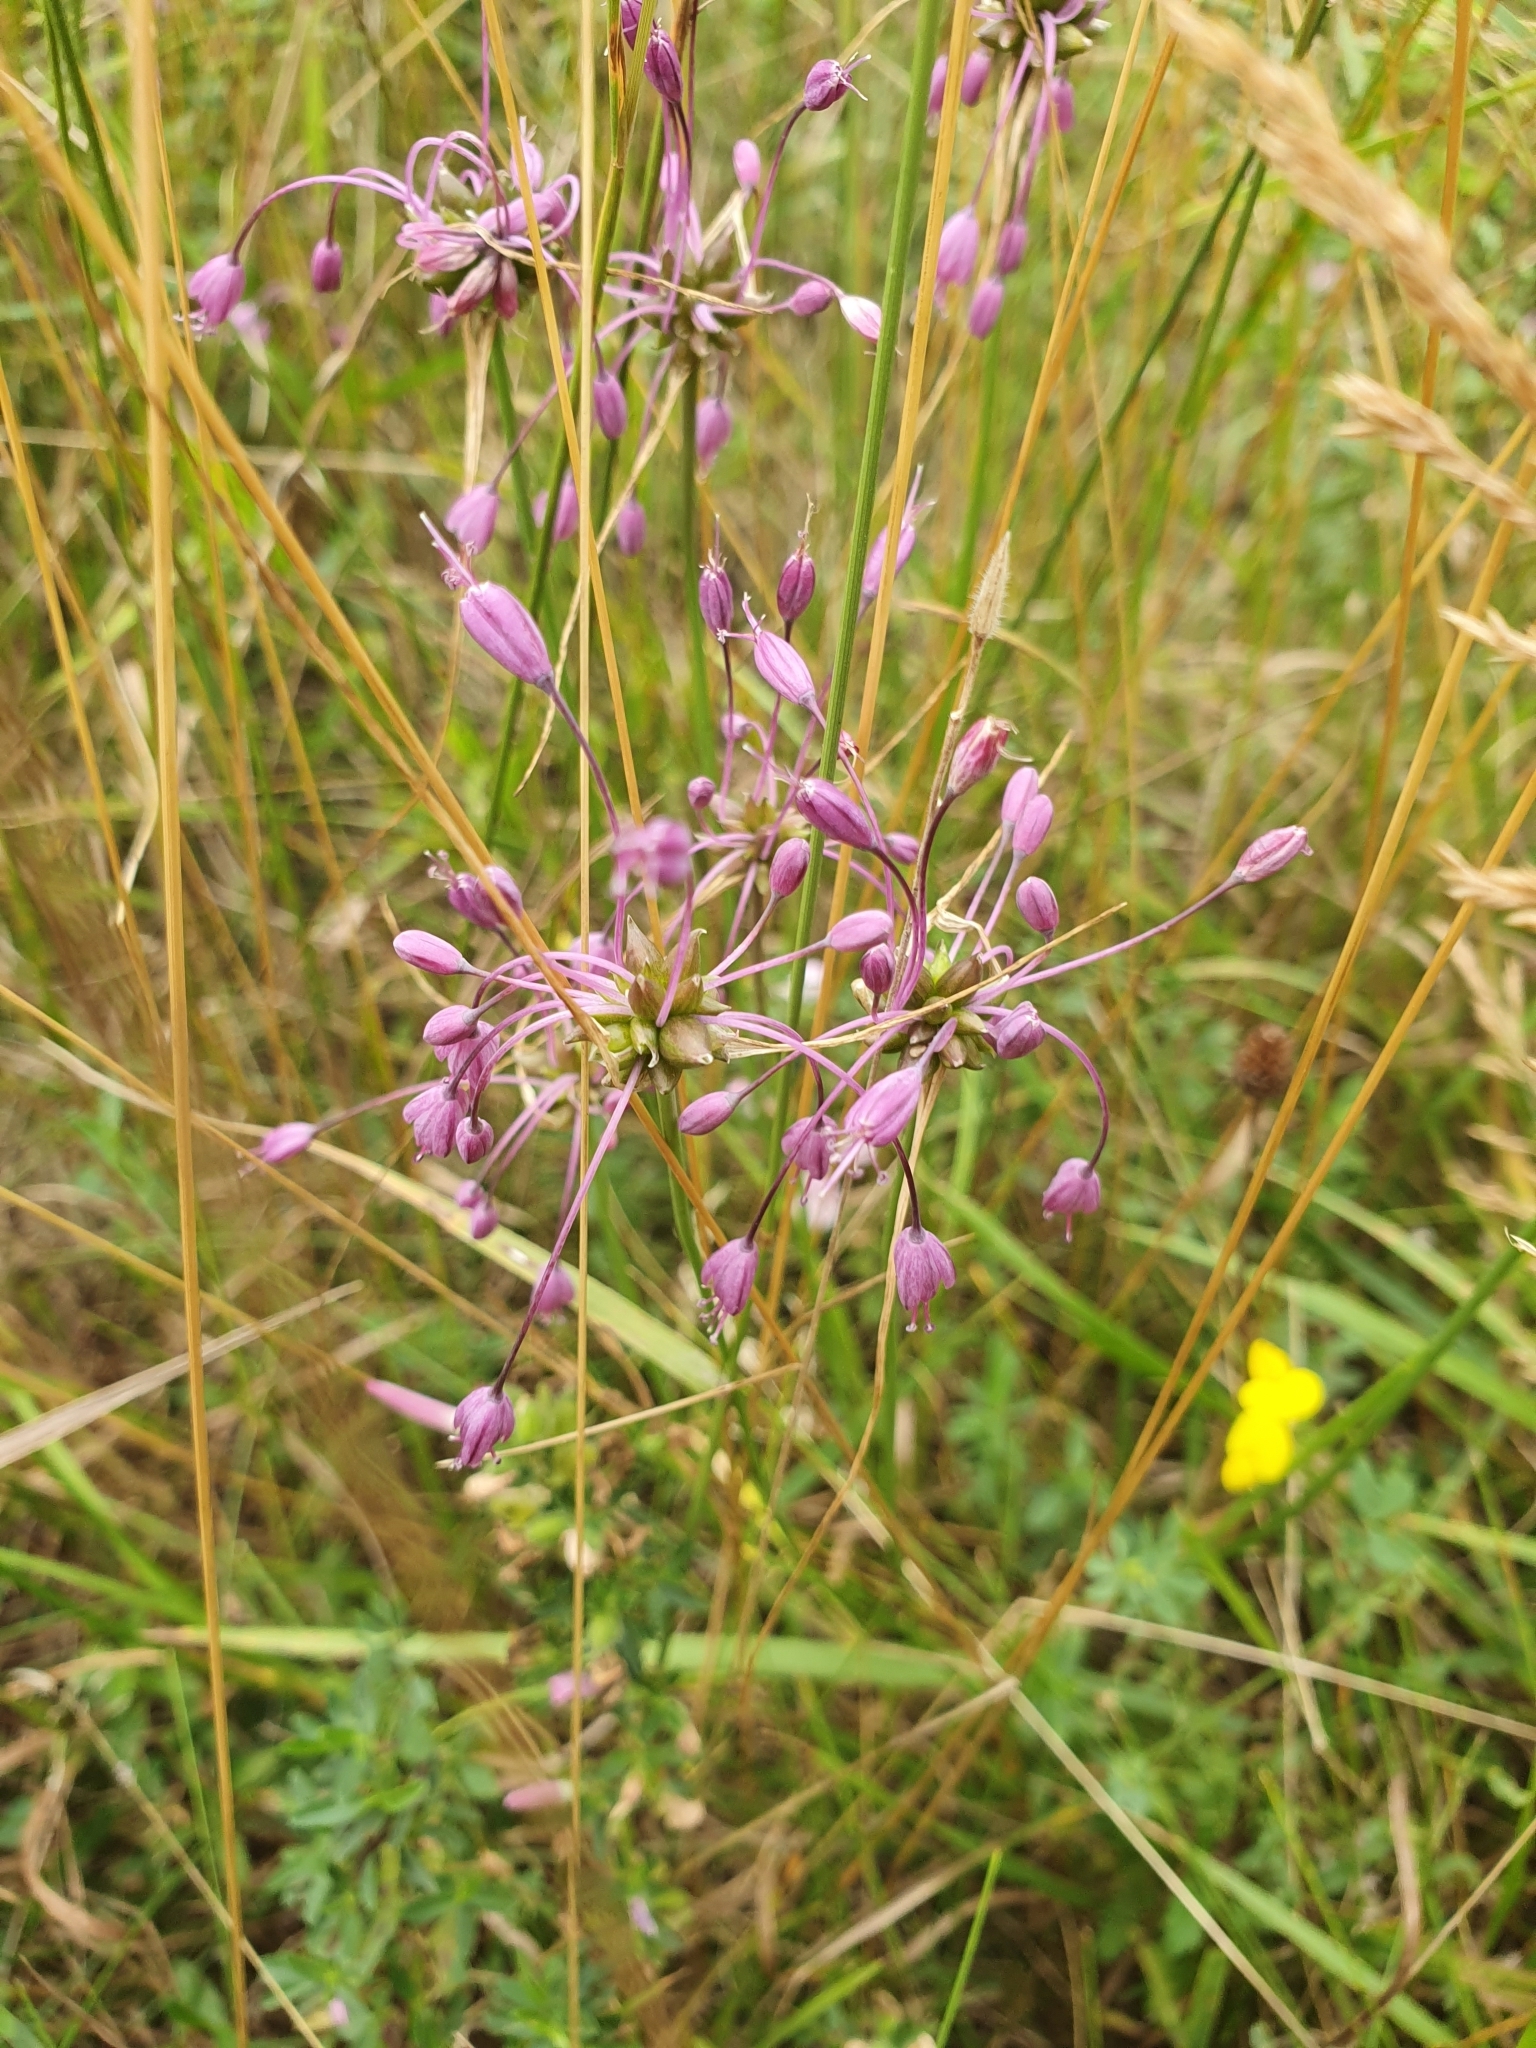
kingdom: Plantae
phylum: Tracheophyta
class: Liliopsida
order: Asparagales
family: Amaryllidaceae
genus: Allium
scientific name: Allium carinatum
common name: Keeled garlic
